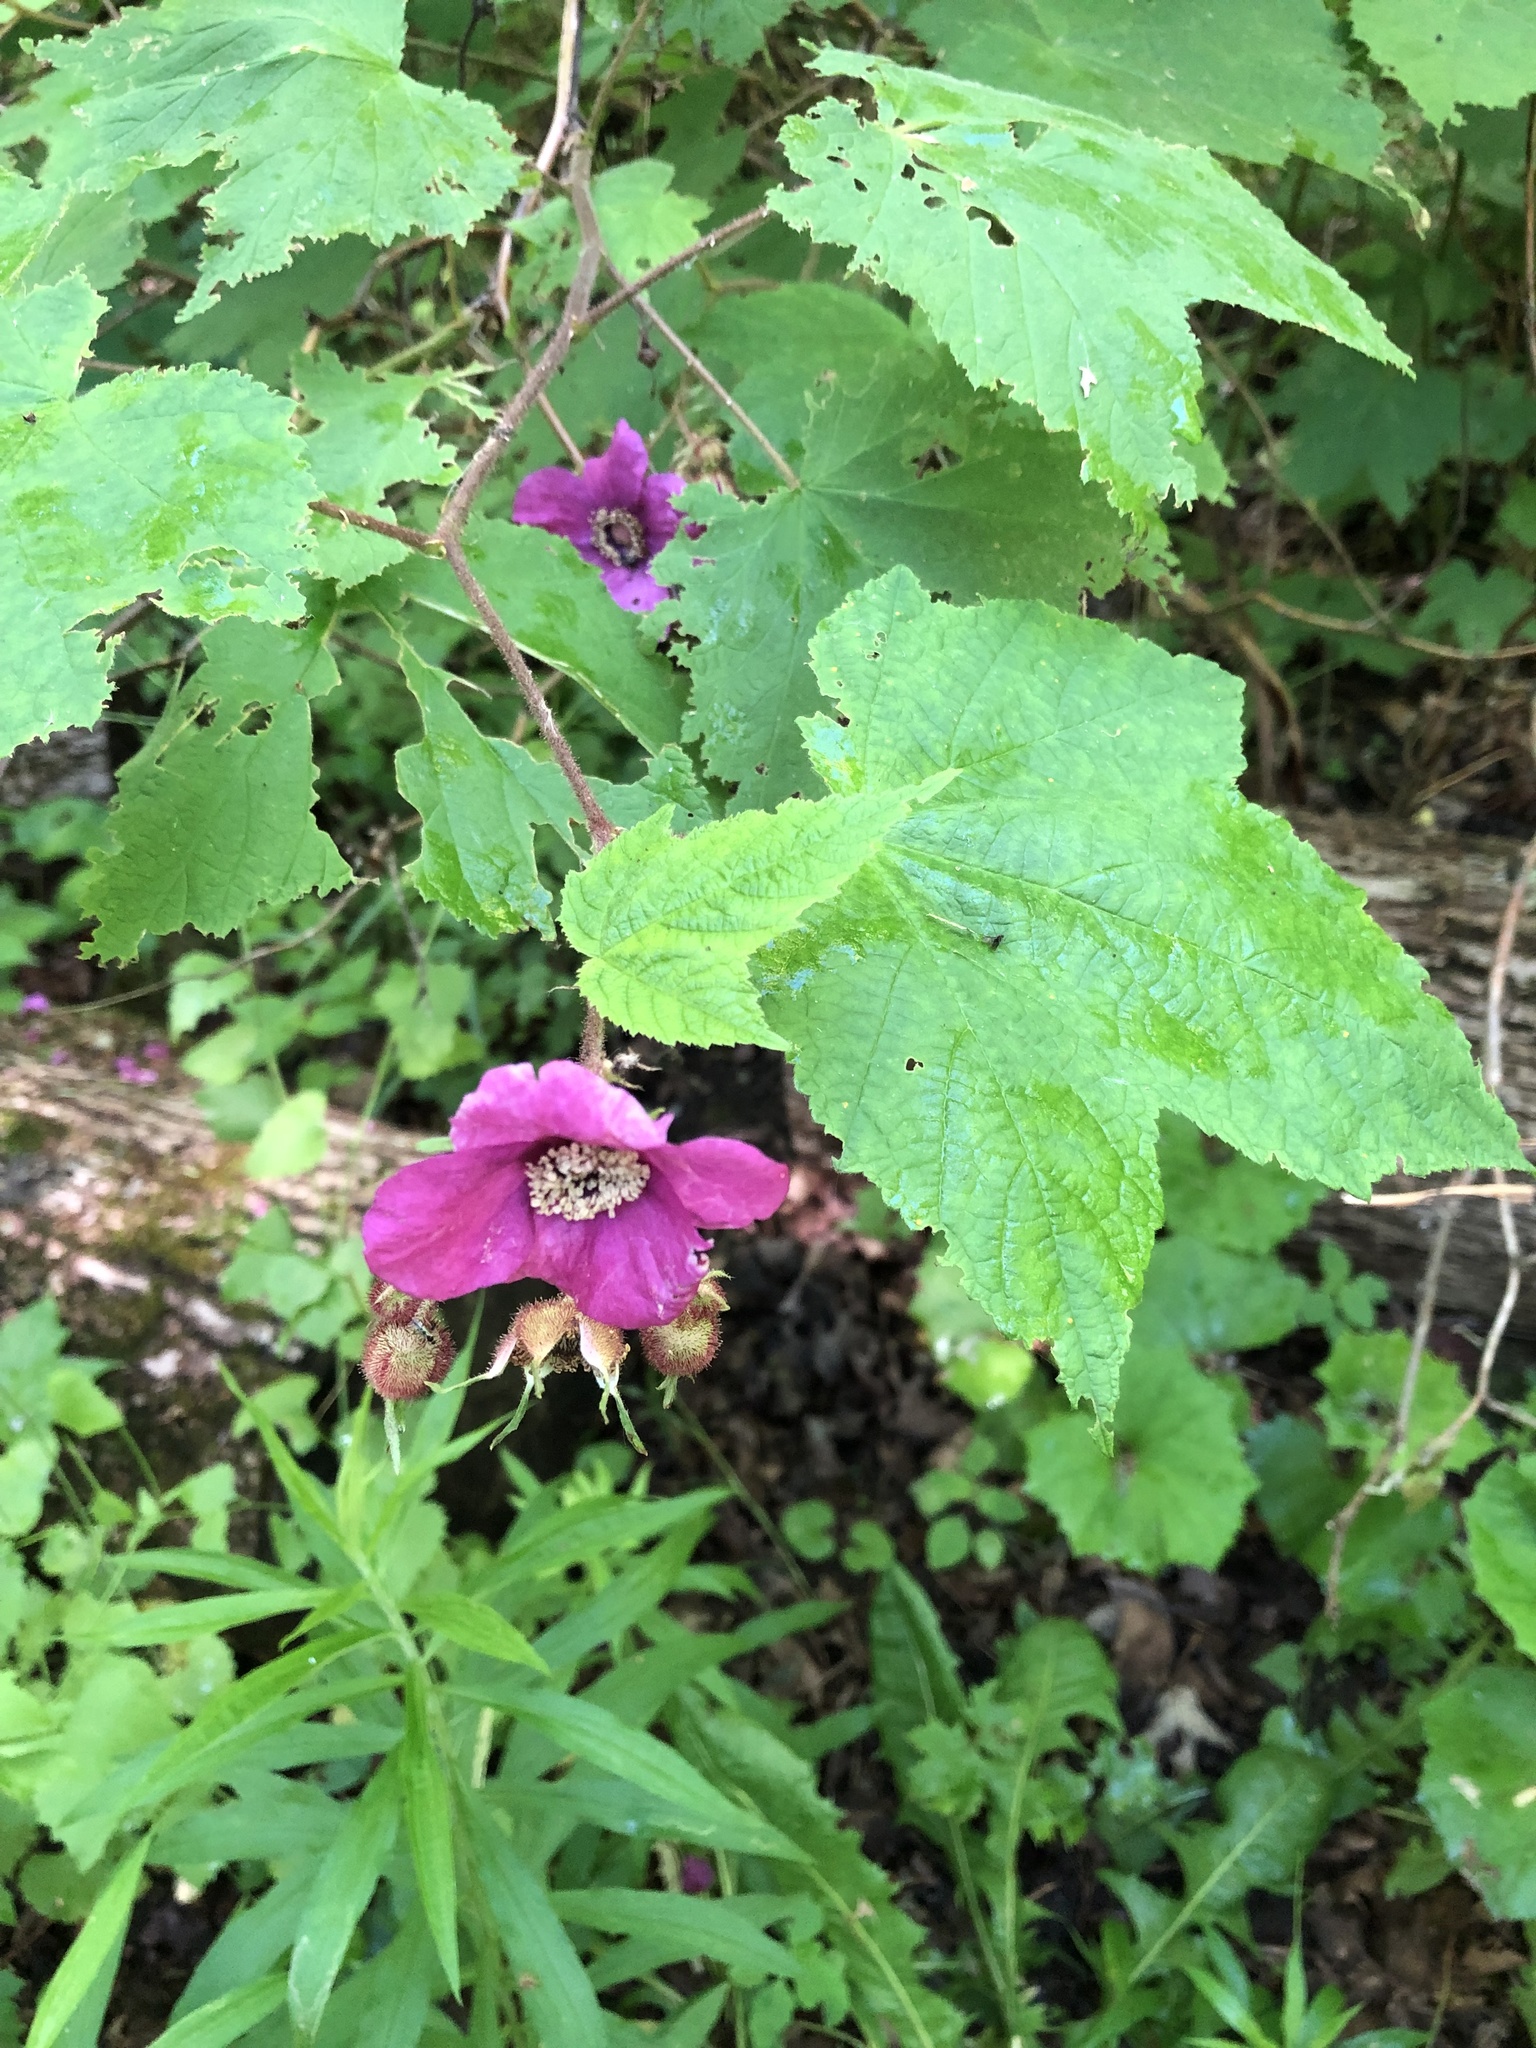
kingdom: Plantae
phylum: Tracheophyta
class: Magnoliopsida
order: Rosales
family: Rosaceae
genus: Rubus
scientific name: Rubus odoratus
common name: Purple-flowered raspberry
